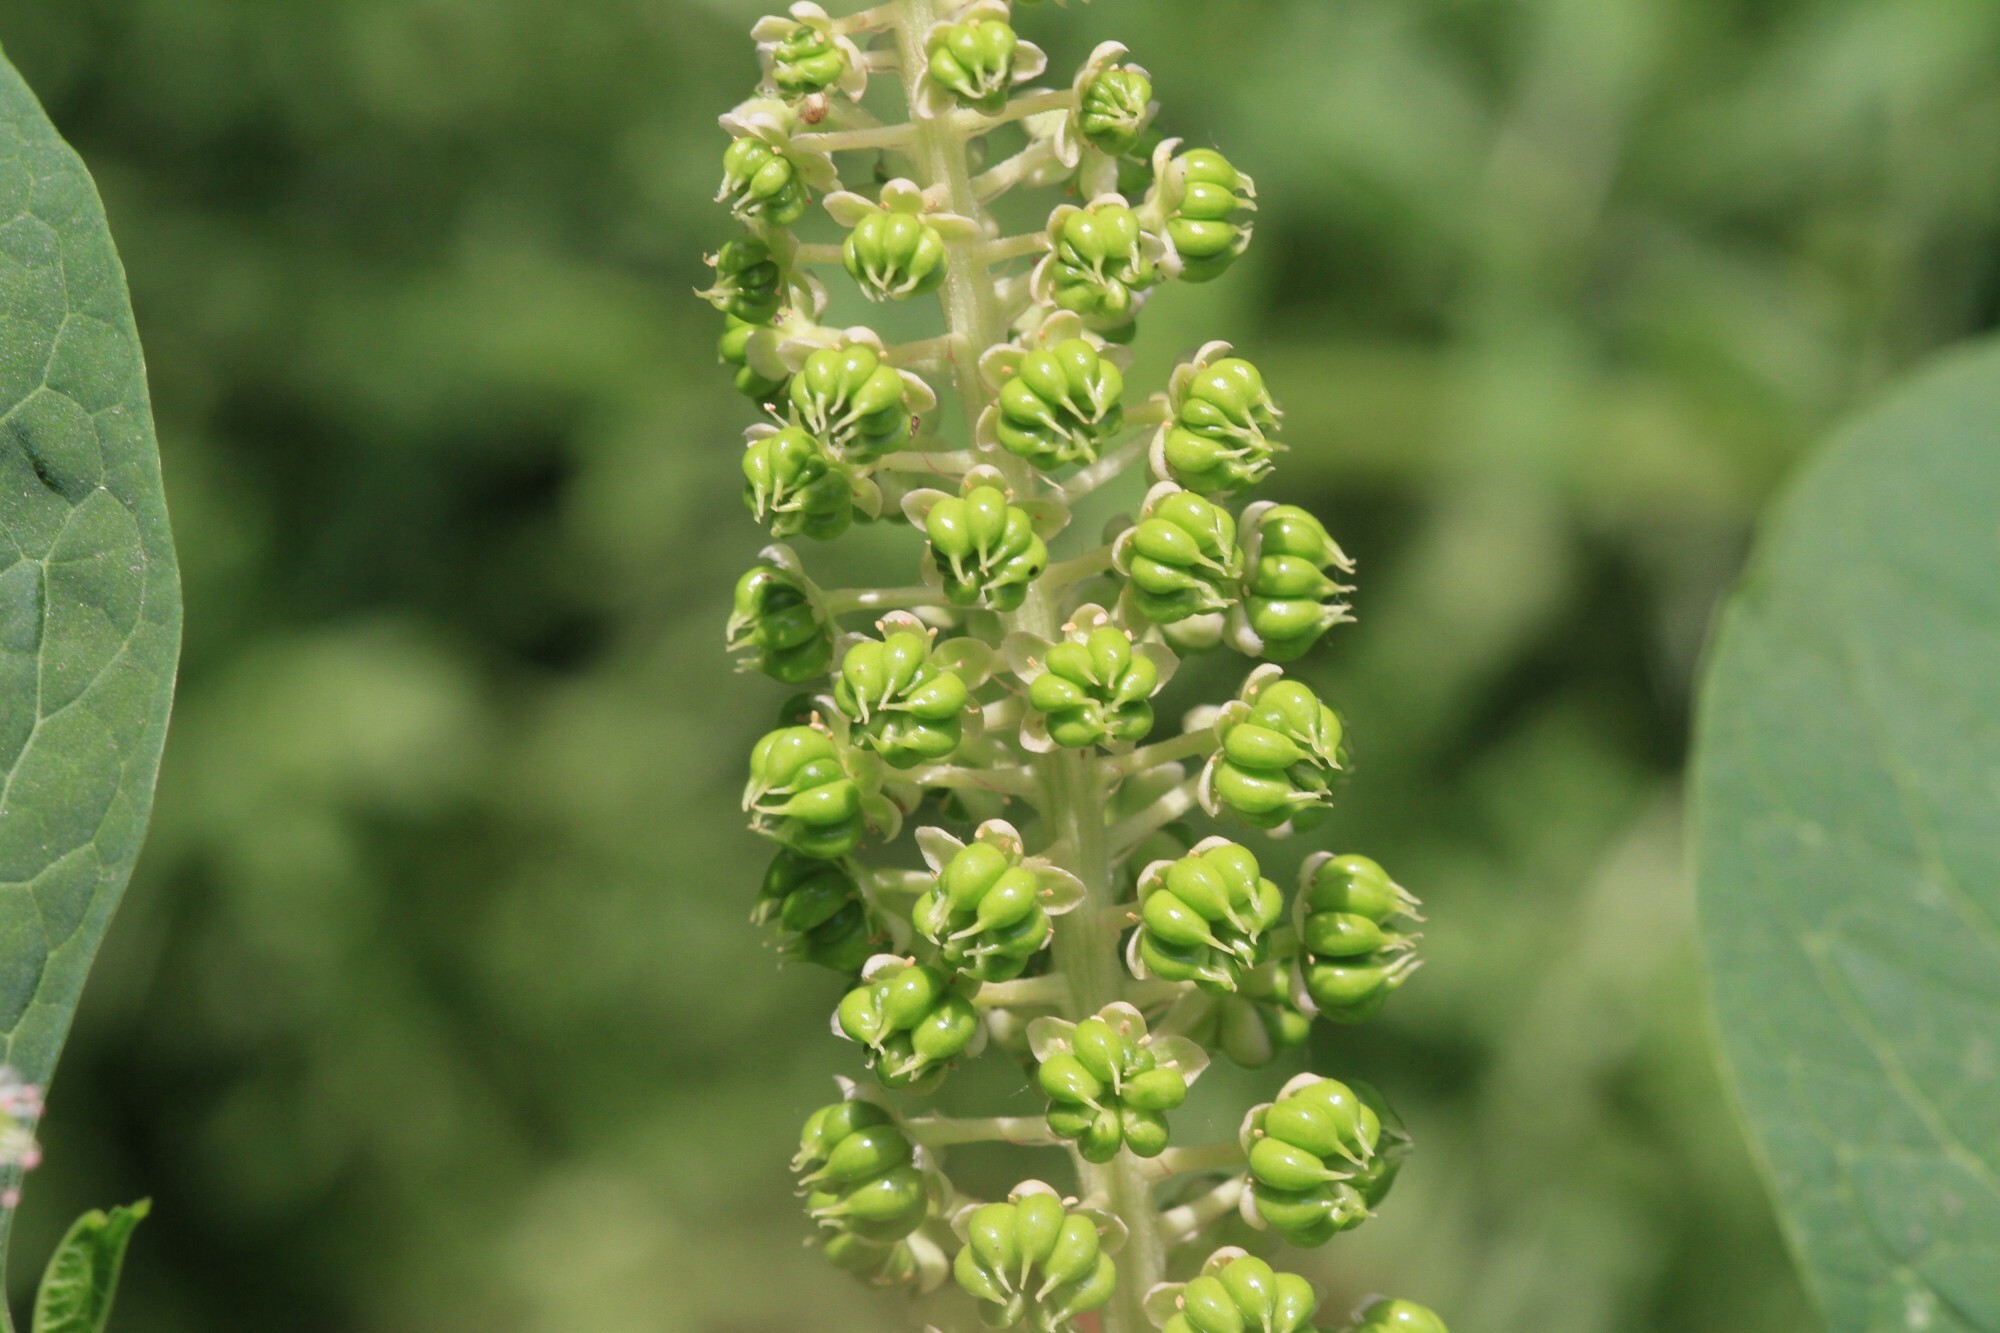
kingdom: Plantae
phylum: Tracheophyta
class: Magnoliopsida
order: Caryophyllales
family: Phytolaccaceae
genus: Phytolacca
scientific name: Phytolacca acinosa
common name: Indian pokeweed
